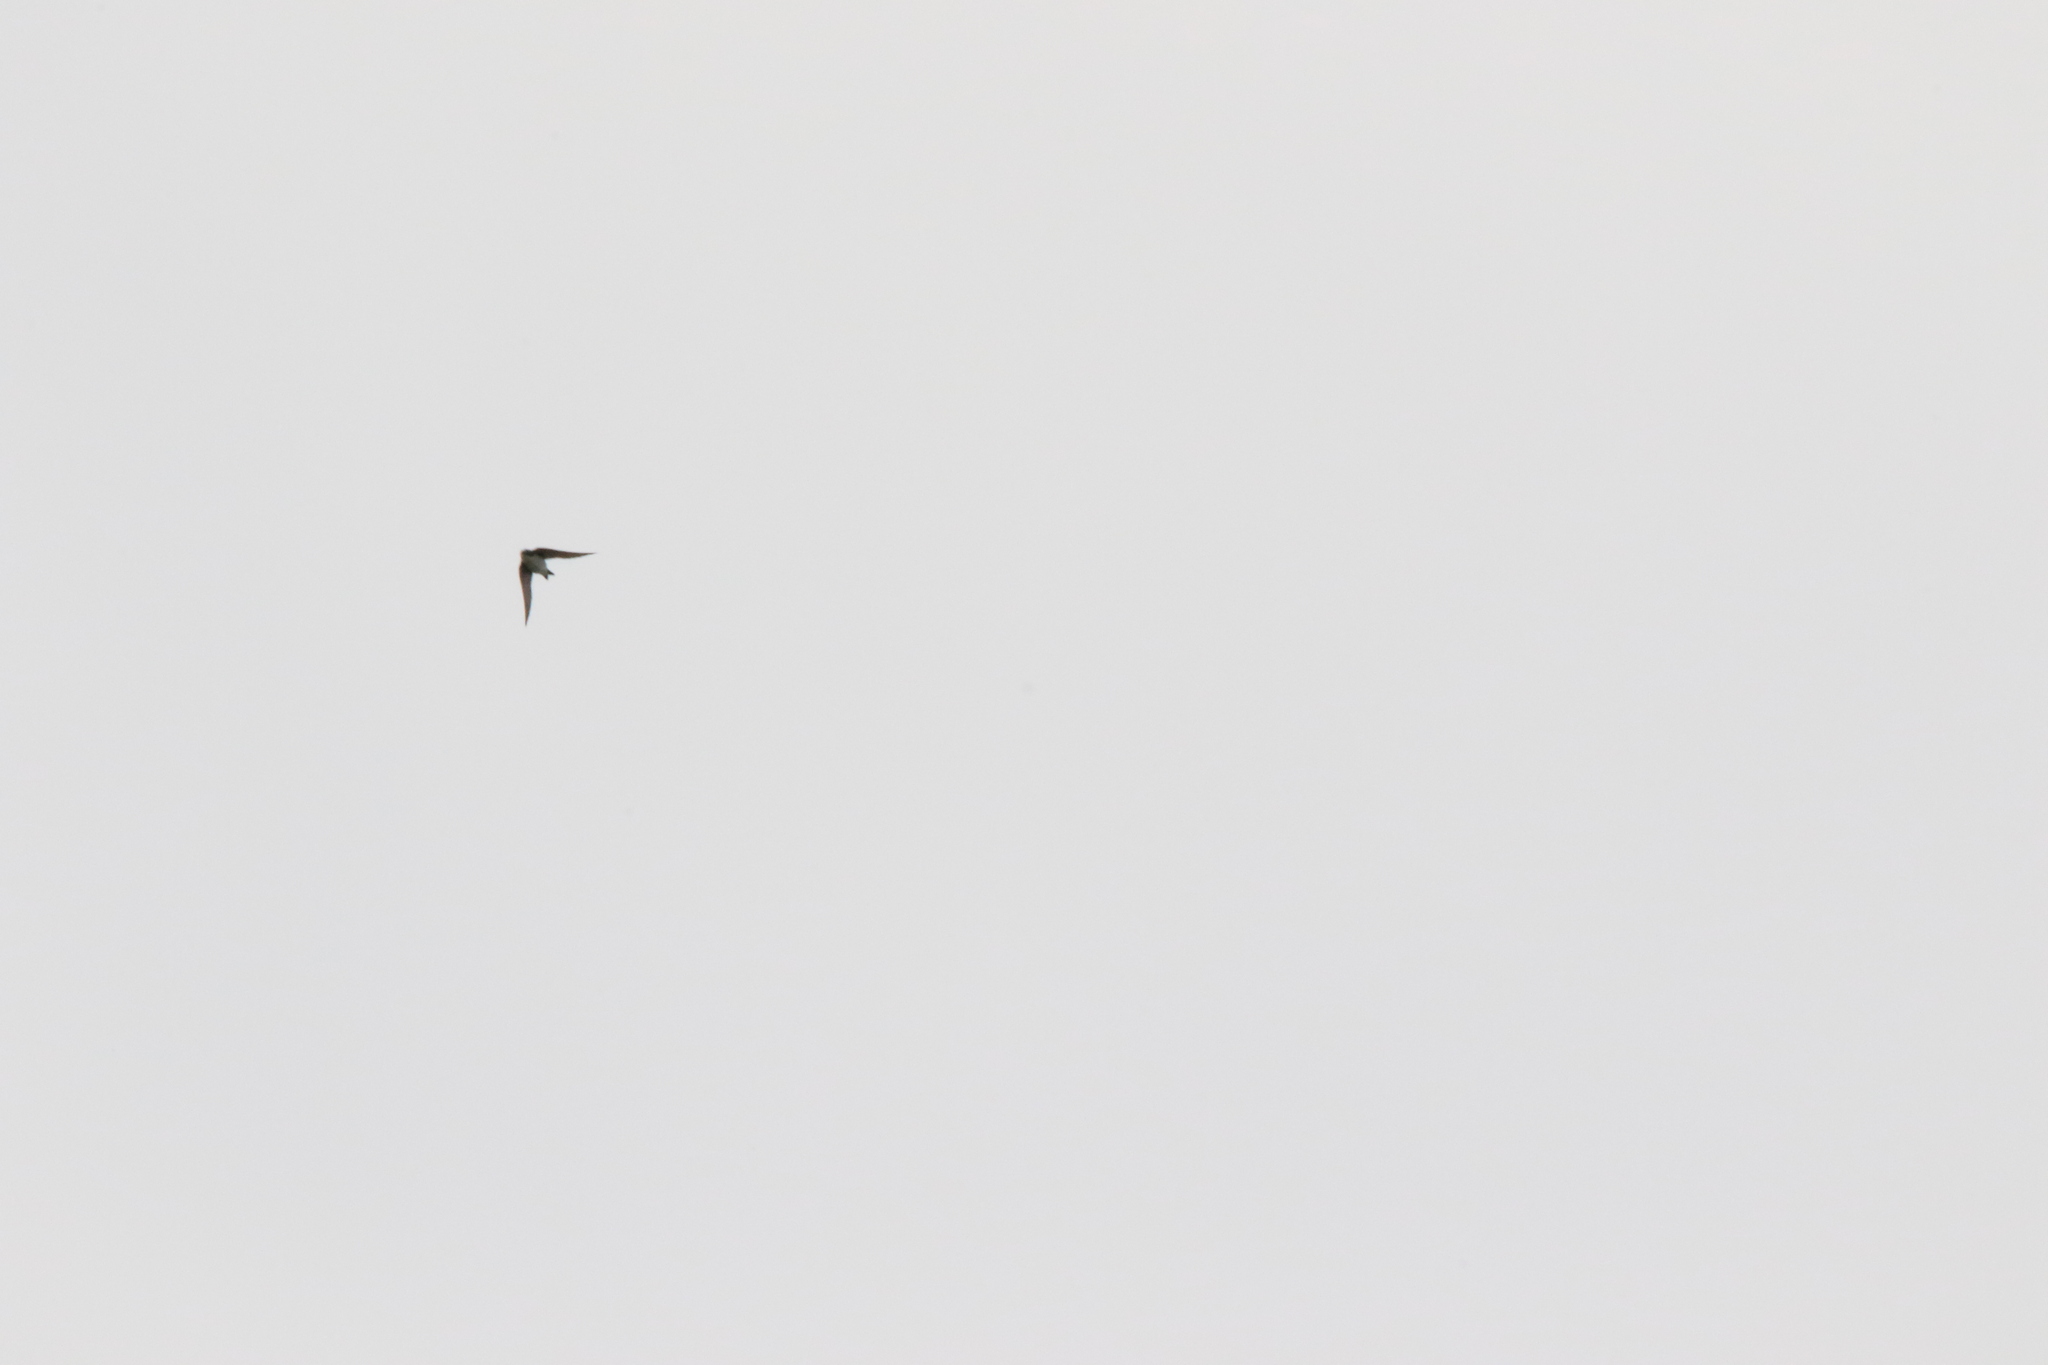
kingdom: Animalia
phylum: Chordata
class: Aves
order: Passeriformes
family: Hirundinidae
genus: Tachycineta
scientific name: Tachycineta bicolor
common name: Tree swallow
